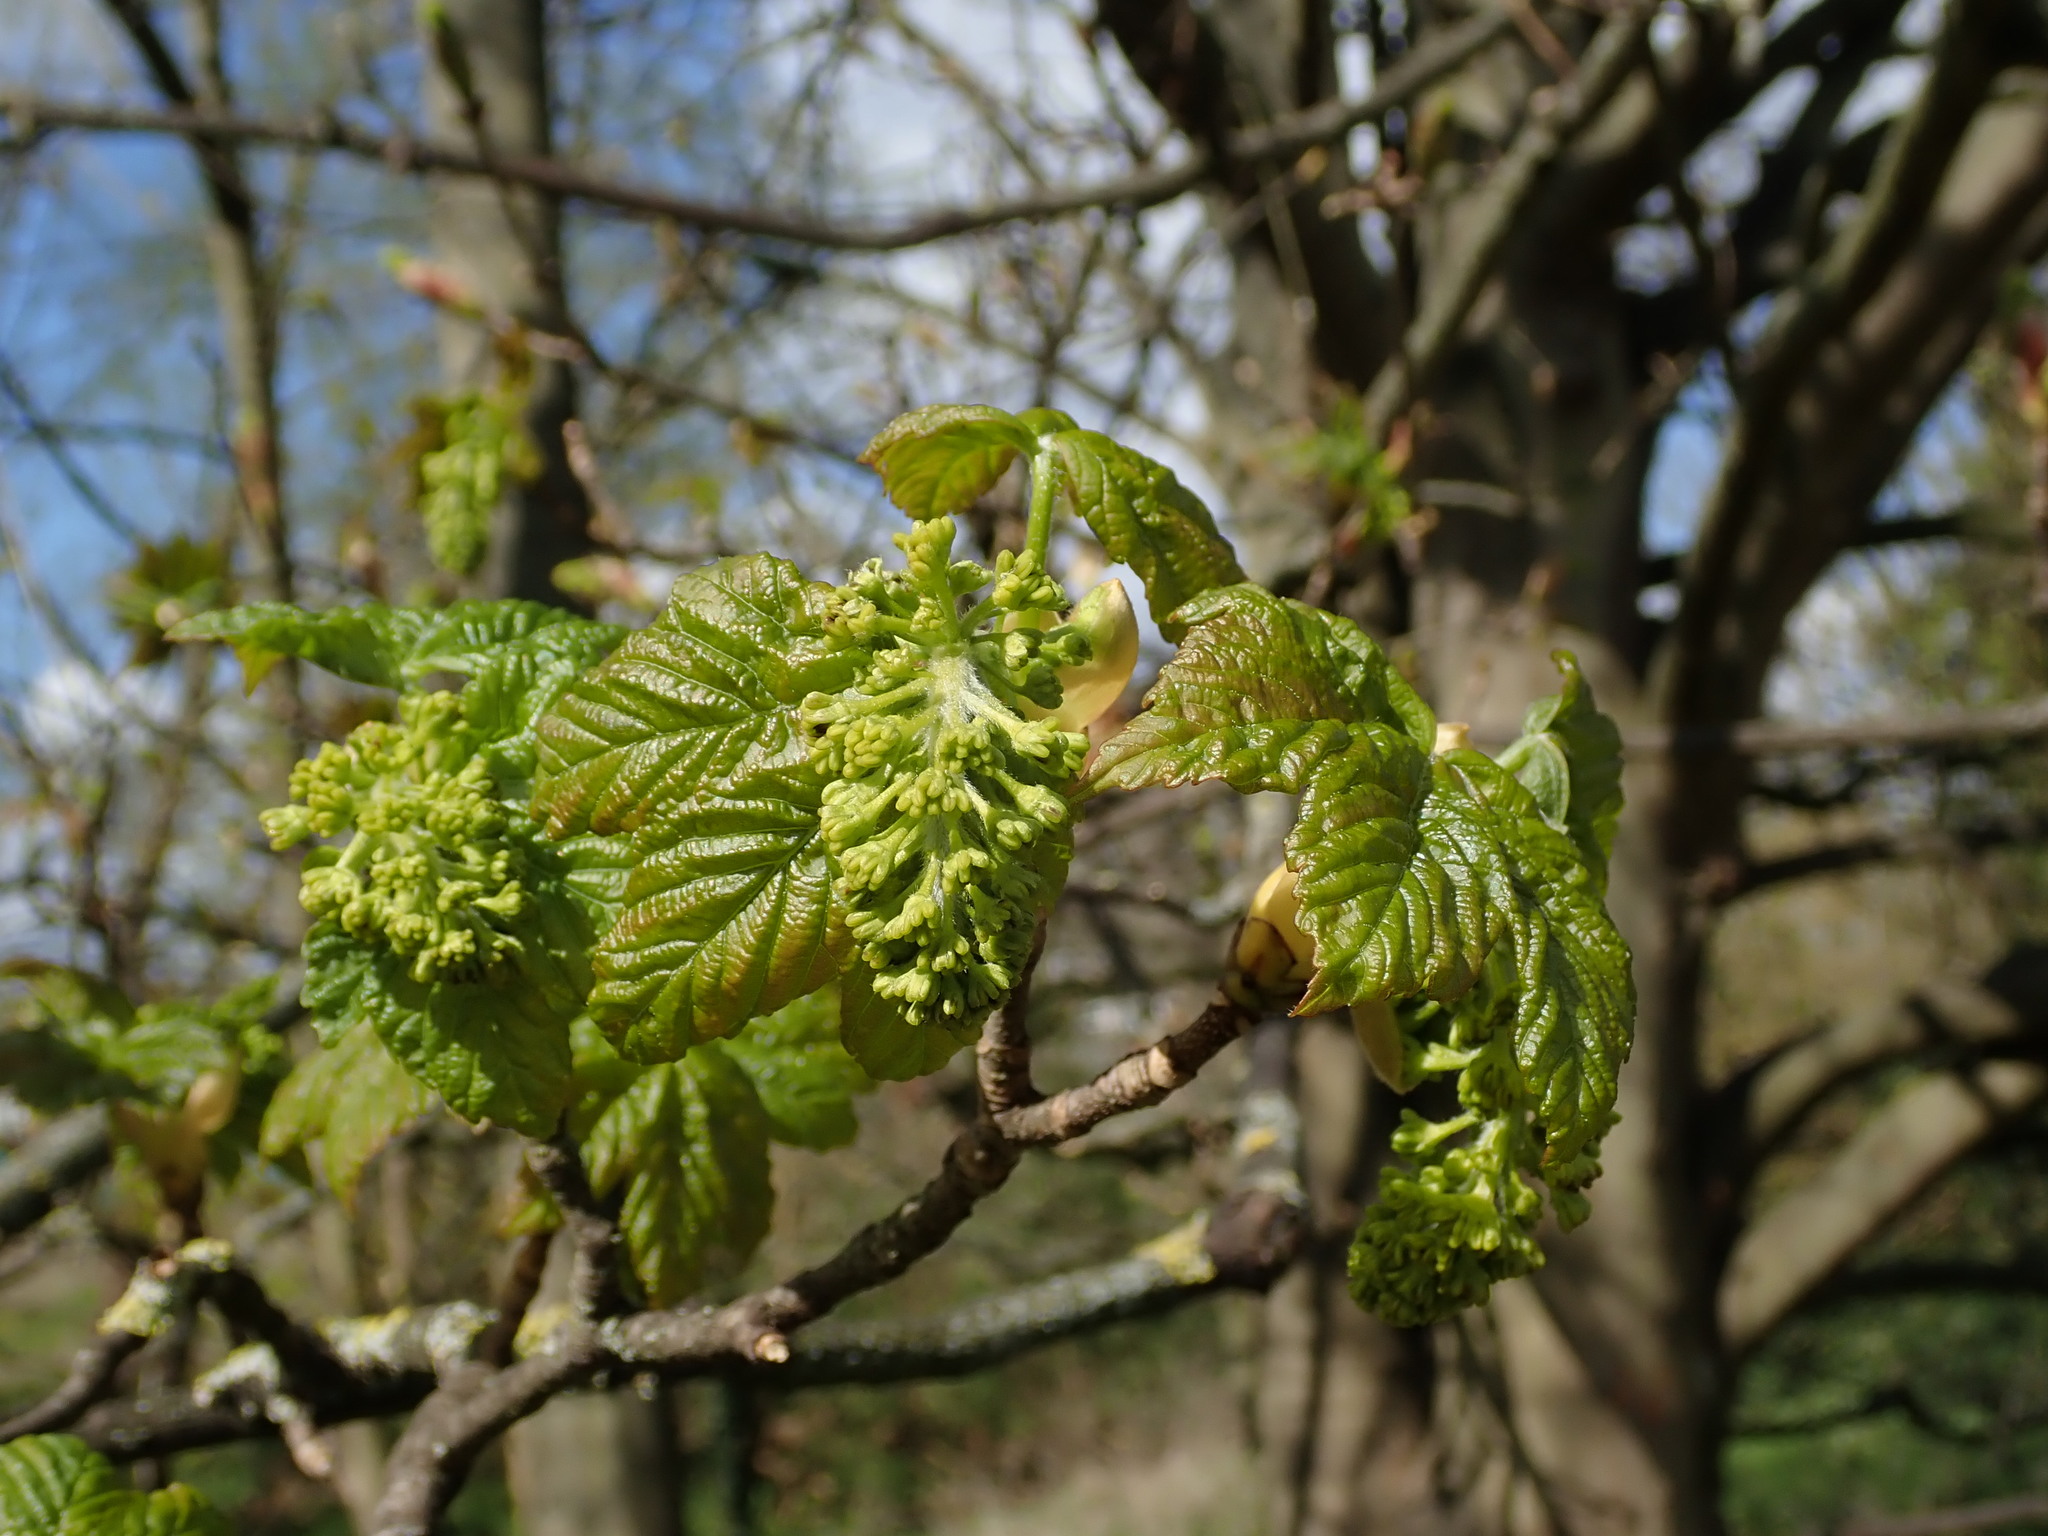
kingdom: Plantae
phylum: Tracheophyta
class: Magnoliopsida
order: Sapindales
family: Sapindaceae
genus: Acer
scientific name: Acer pseudoplatanus
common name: Sycamore
